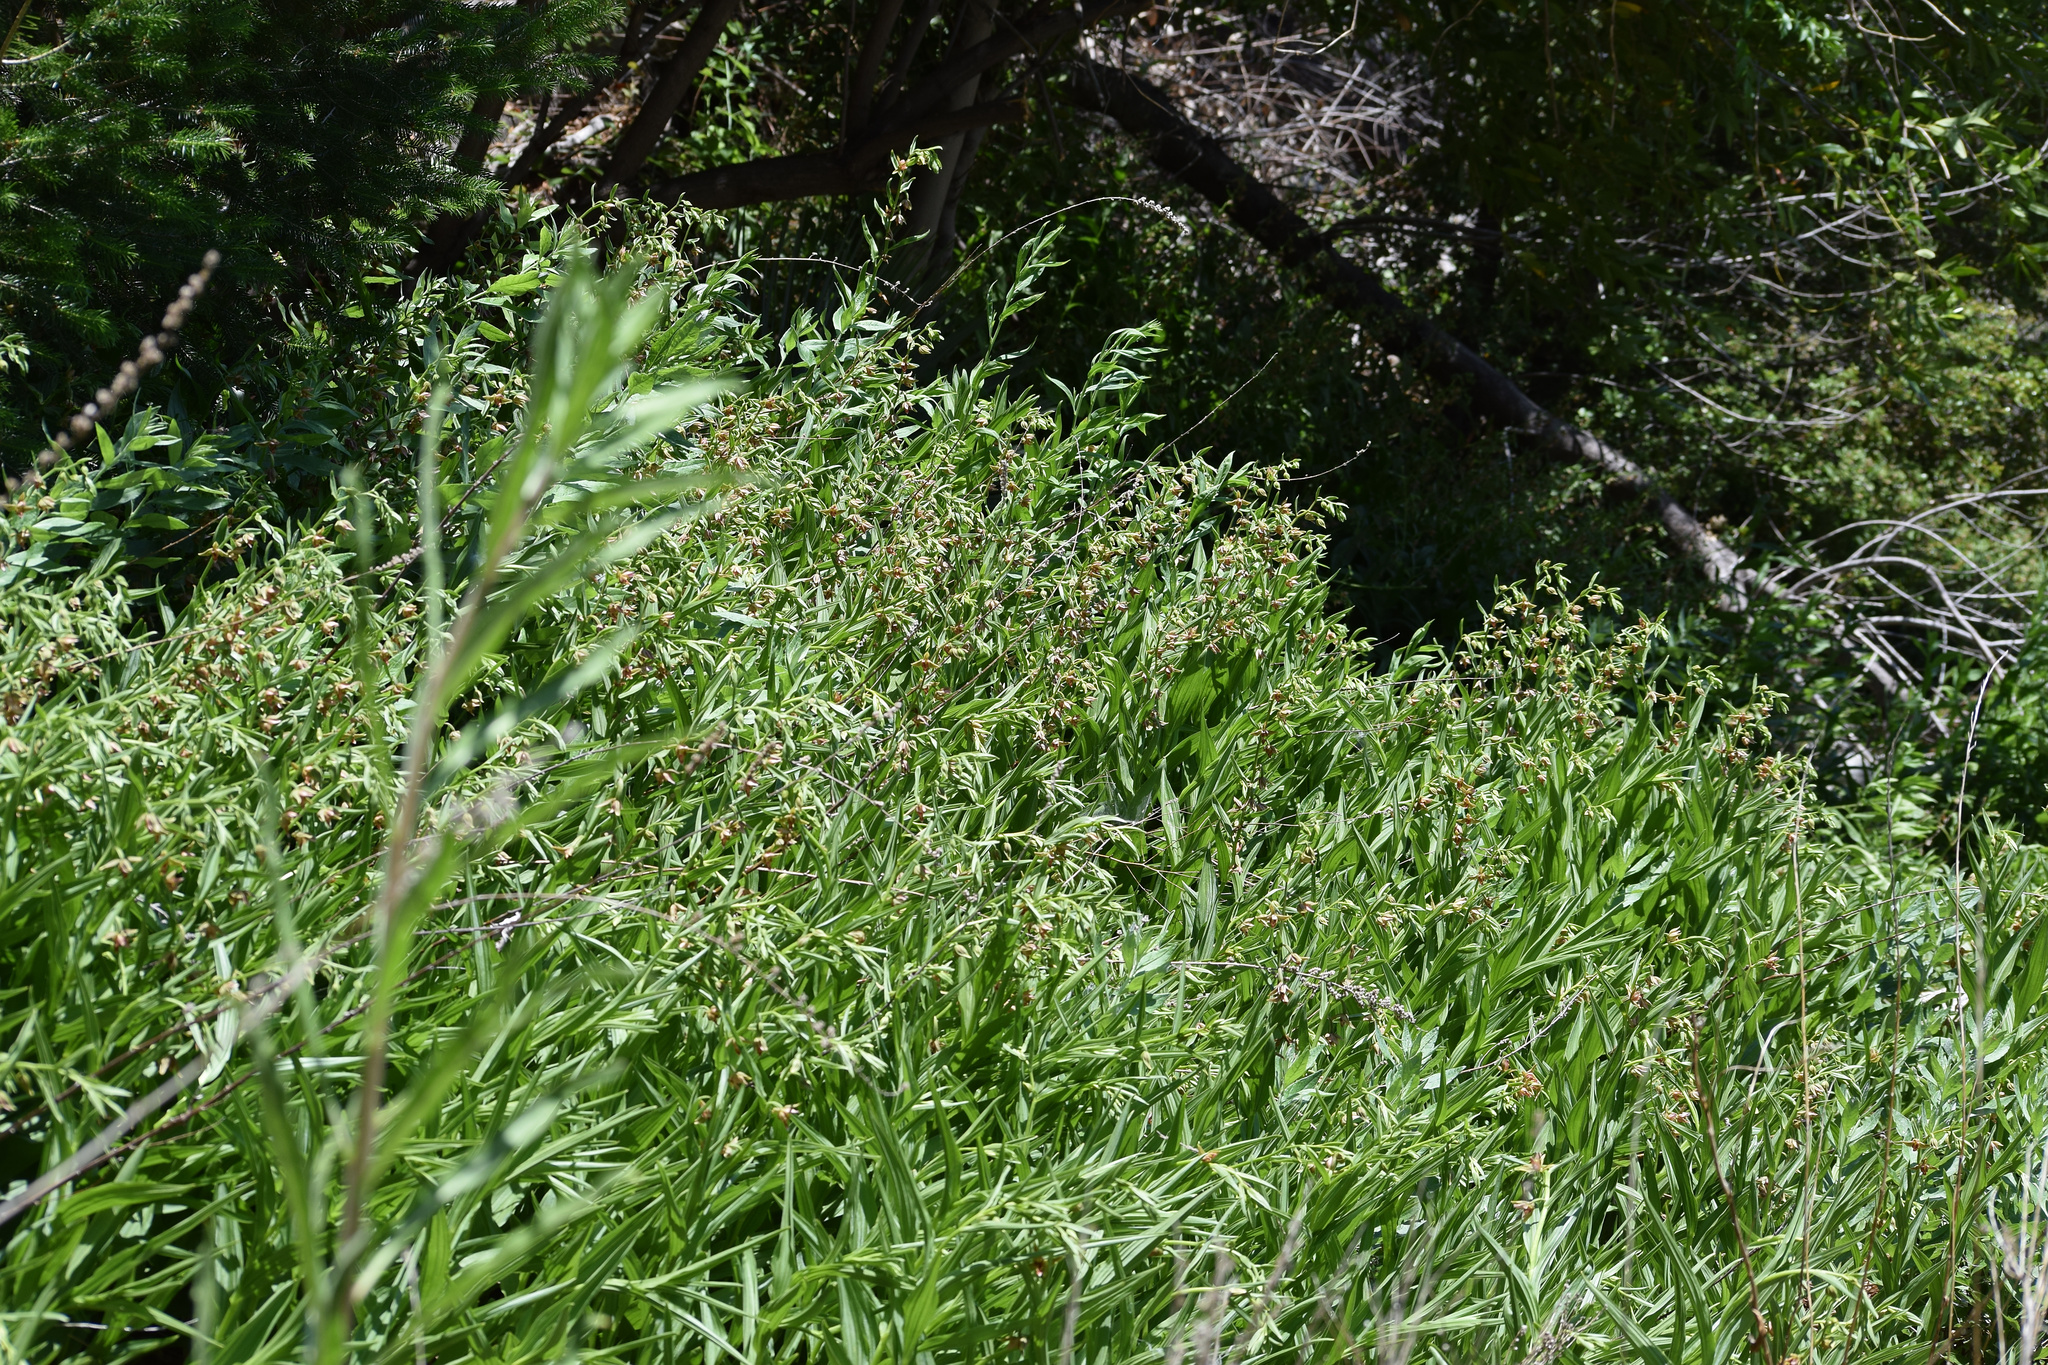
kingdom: Plantae
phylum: Tracheophyta
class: Liliopsida
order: Asparagales
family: Orchidaceae
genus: Epipactis
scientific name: Epipactis gigantea
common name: Chatterbox
